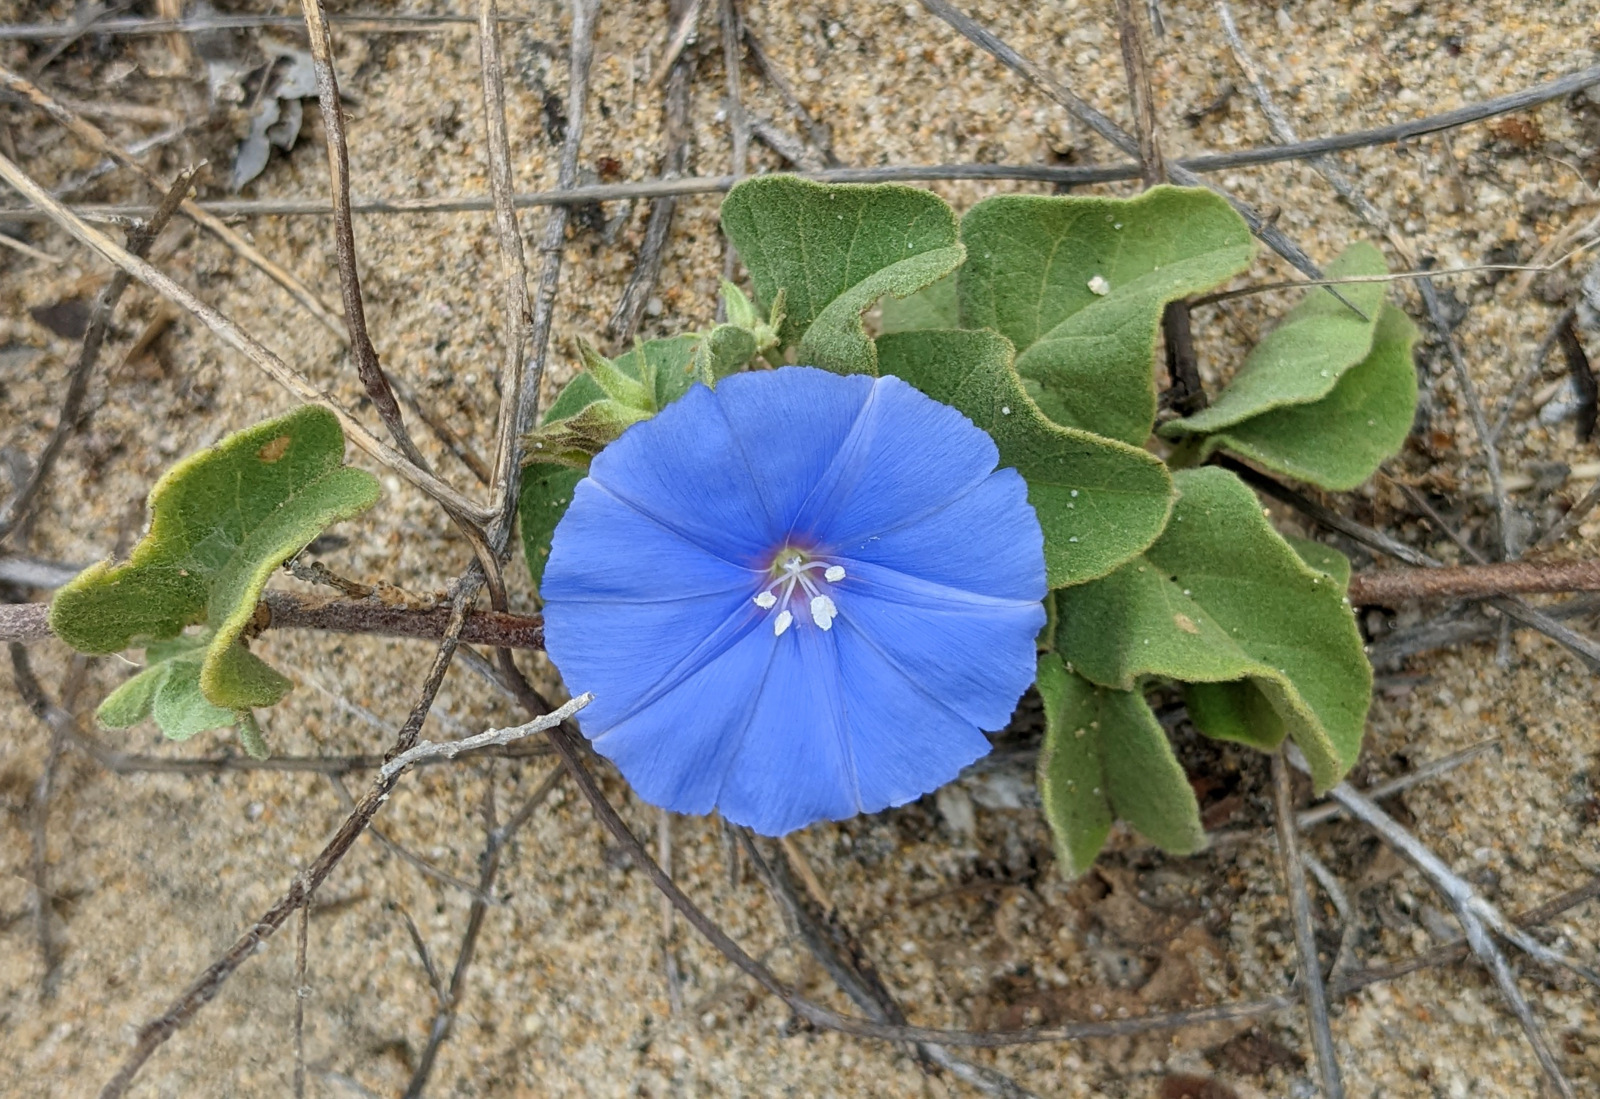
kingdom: Plantae
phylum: Tracheophyta
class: Magnoliopsida
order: Solanales
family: Convolvulaceae
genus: Jacquemontia
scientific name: Jacquemontia abutiloides
